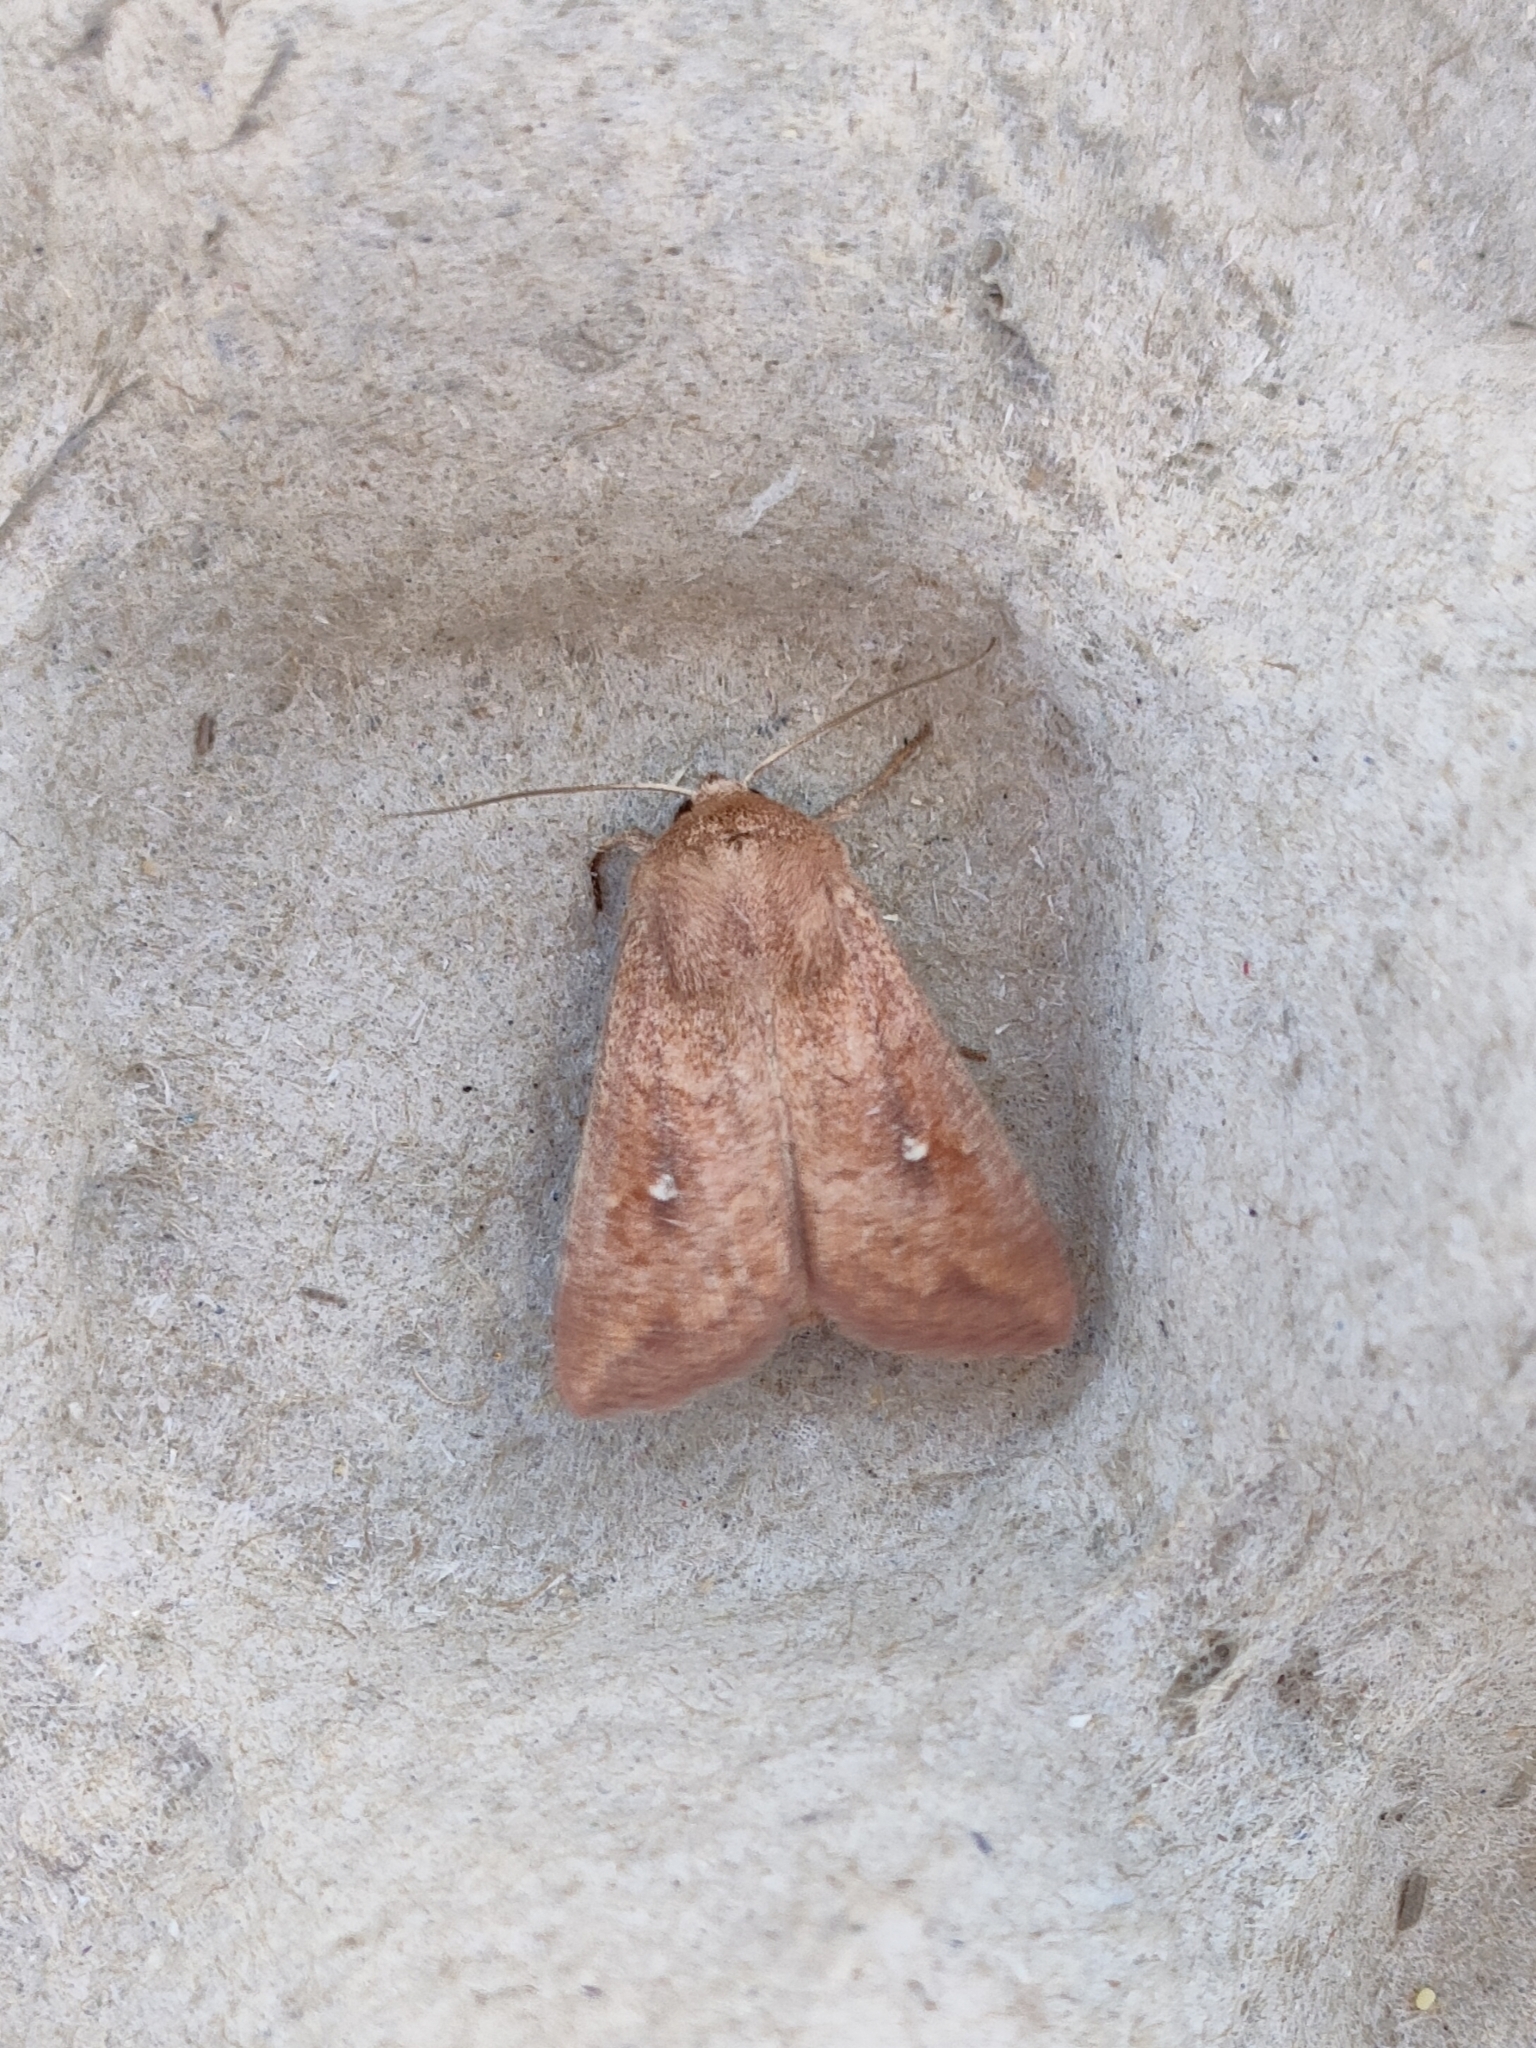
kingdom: Animalia
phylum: Arthropoda
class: Insecta
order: Lepidoptera
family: Noctuidae
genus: Mythimna
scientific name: Mythimna albipuncta
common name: White-point
